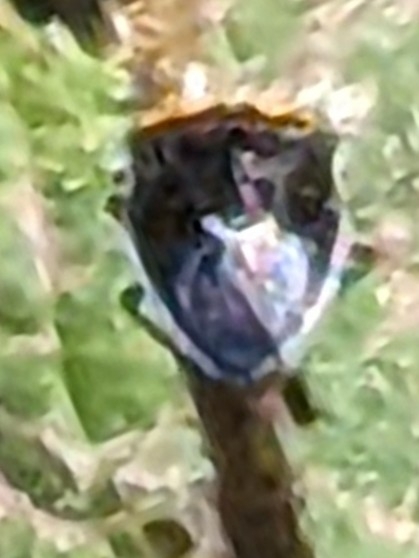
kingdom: Animalia
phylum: Arthropoda
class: Insecta
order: Hemiptera
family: Pentatomidae
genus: Cosmopepla
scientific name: Cosmopepla conspicillaris
